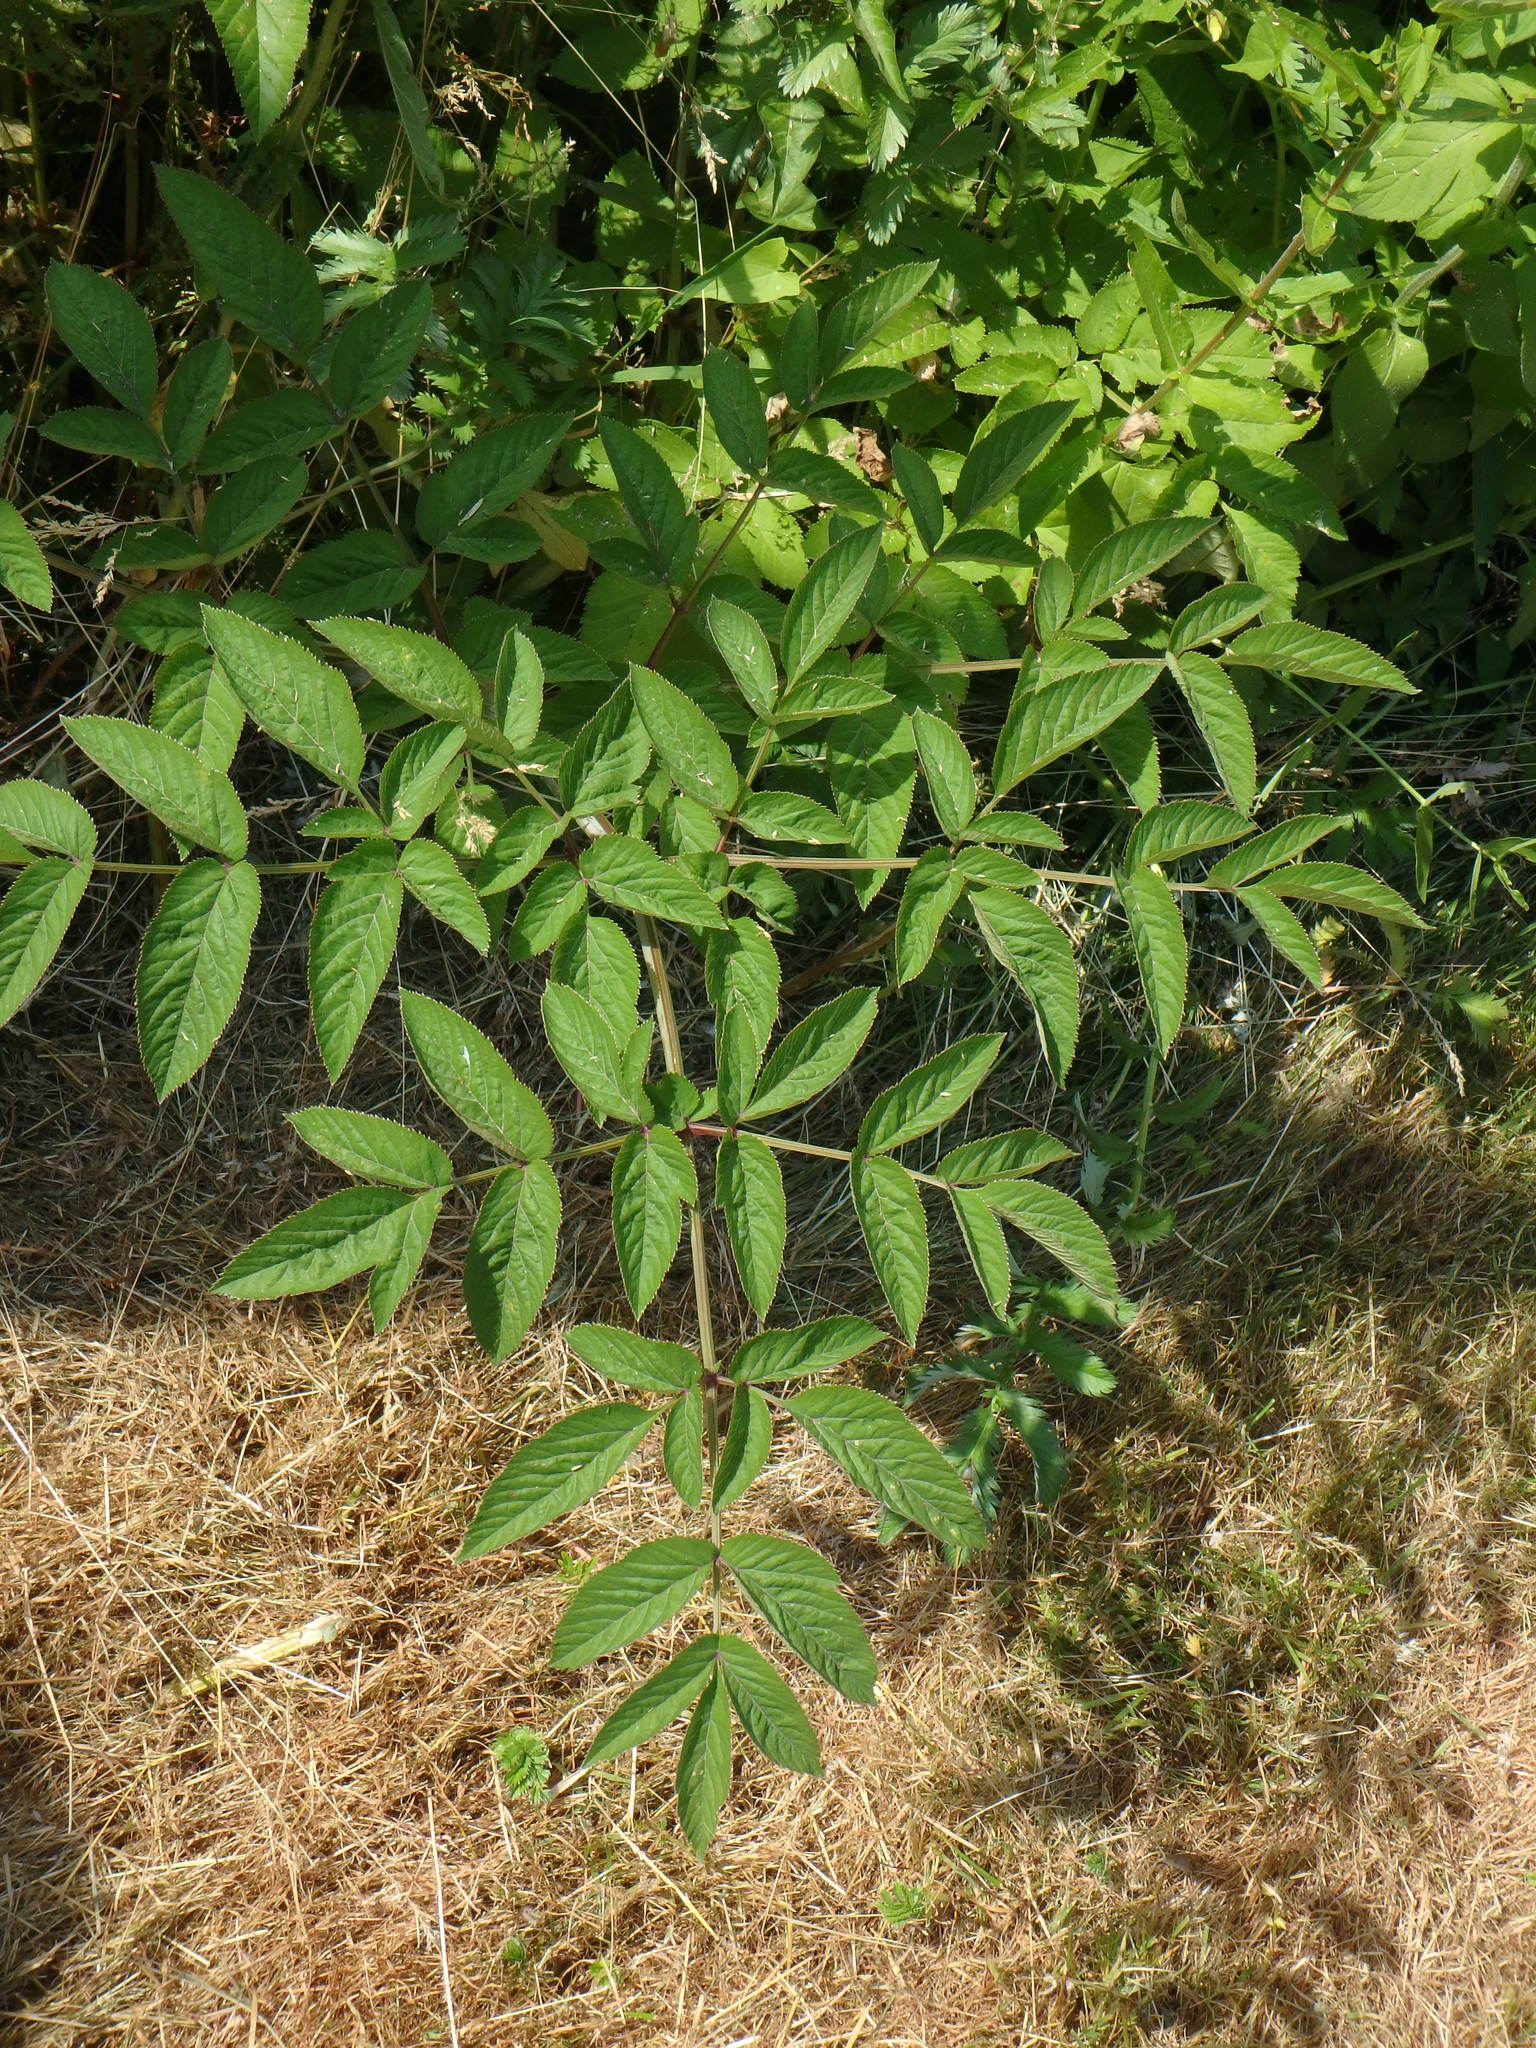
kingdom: Plantae
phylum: Tracheophyta
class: Magnoliopsida
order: Apiales
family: Apiaceae
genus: Angelica
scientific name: Angelica sylvestris
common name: Wild angelica
